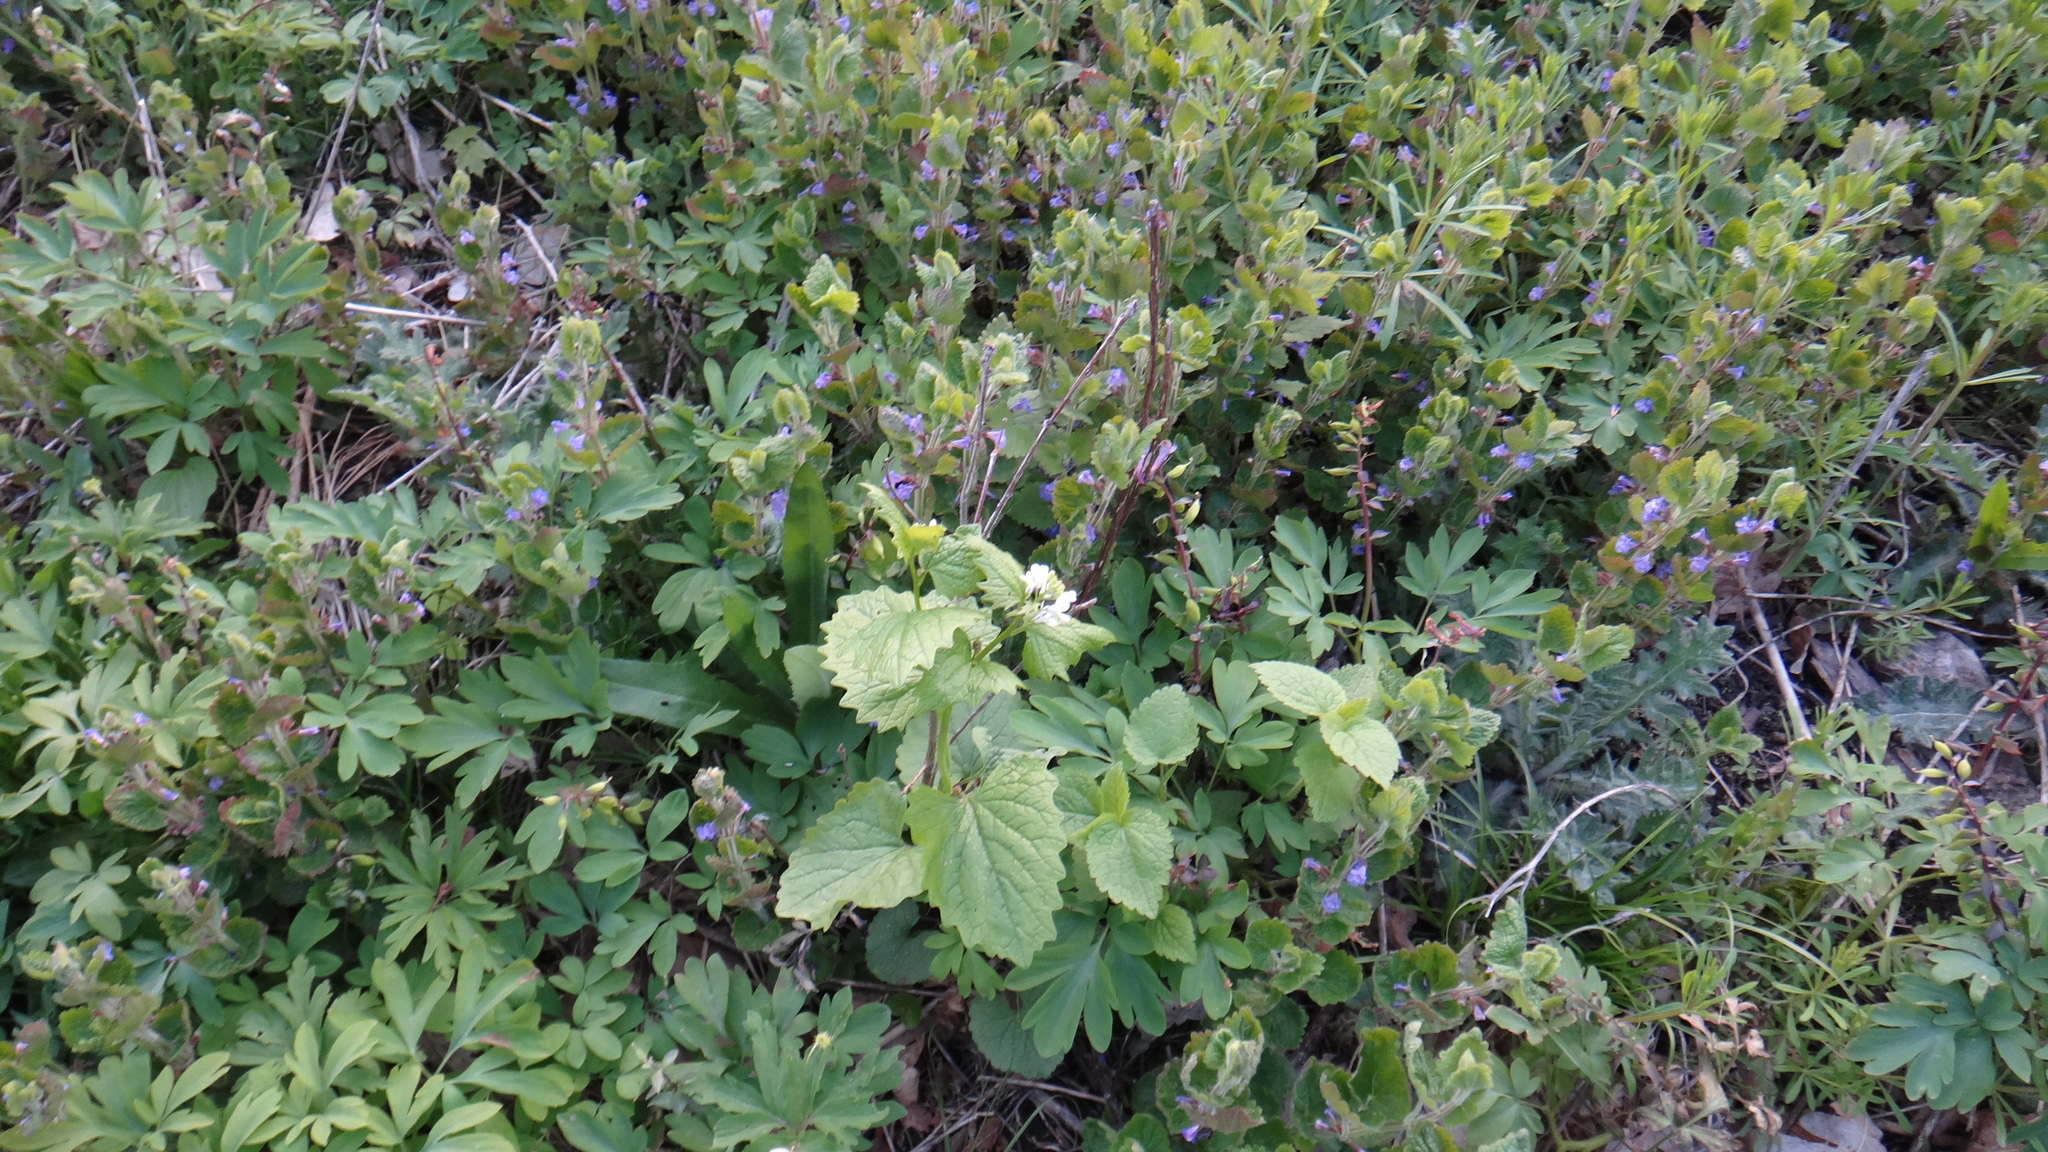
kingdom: Plantae
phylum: Tracheophyta
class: Magnoliopsida
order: Lamiales
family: Lamiaceae
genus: Glechoma
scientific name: Glechoma hederacea
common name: Ground ivy
